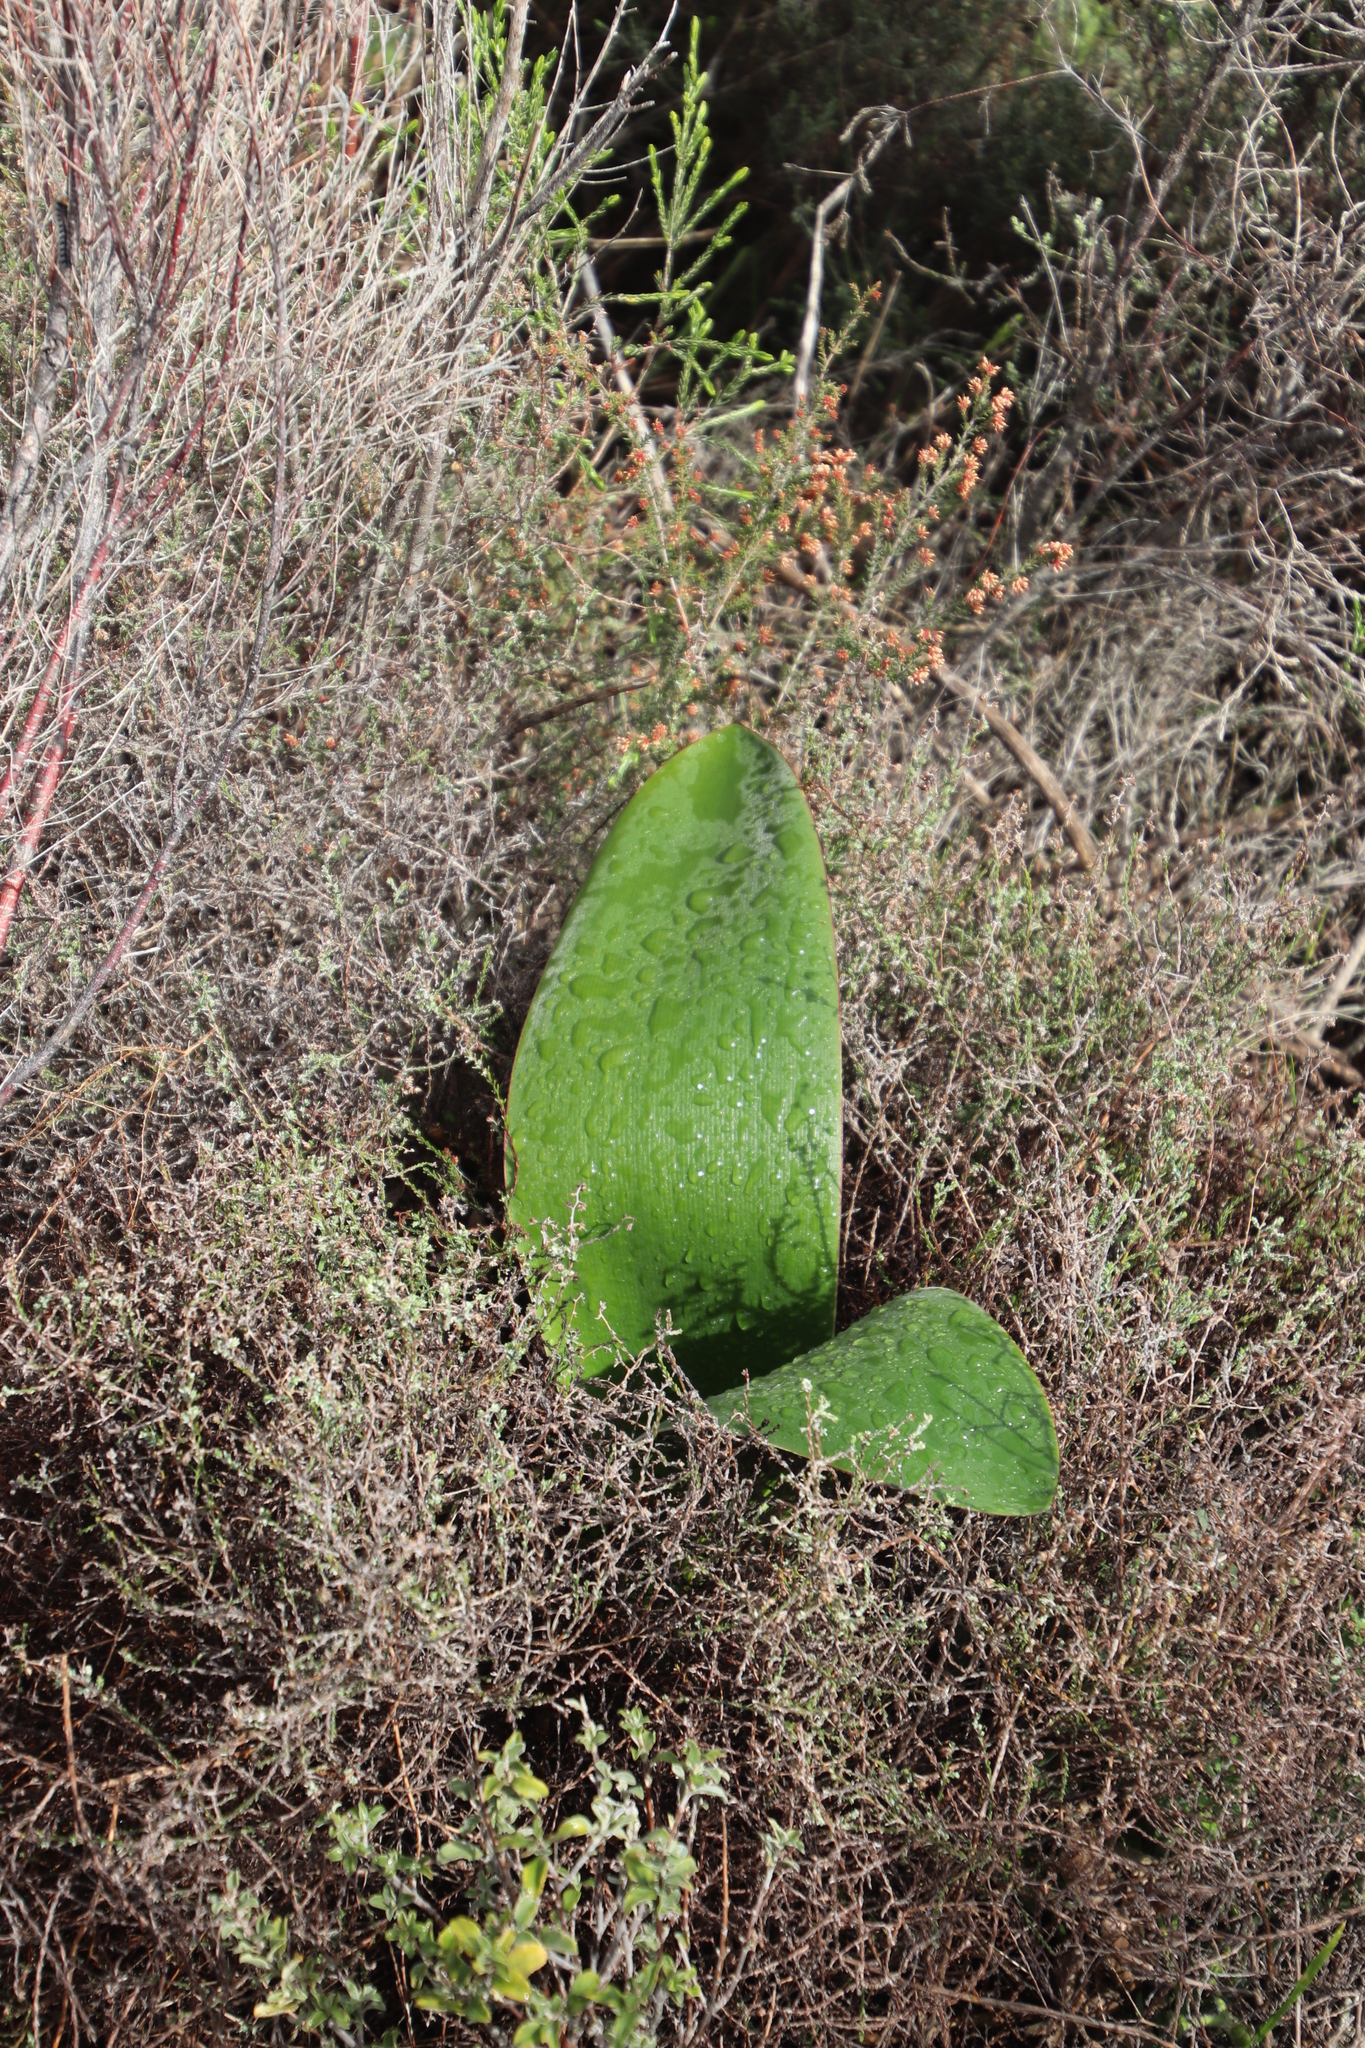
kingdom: Plantae
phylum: Tracheophyta
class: Liliopsida
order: Asparagales
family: Amaryllidaceae
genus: Haemanthus
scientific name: Haemanthus coccineus
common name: Cape-tulip
